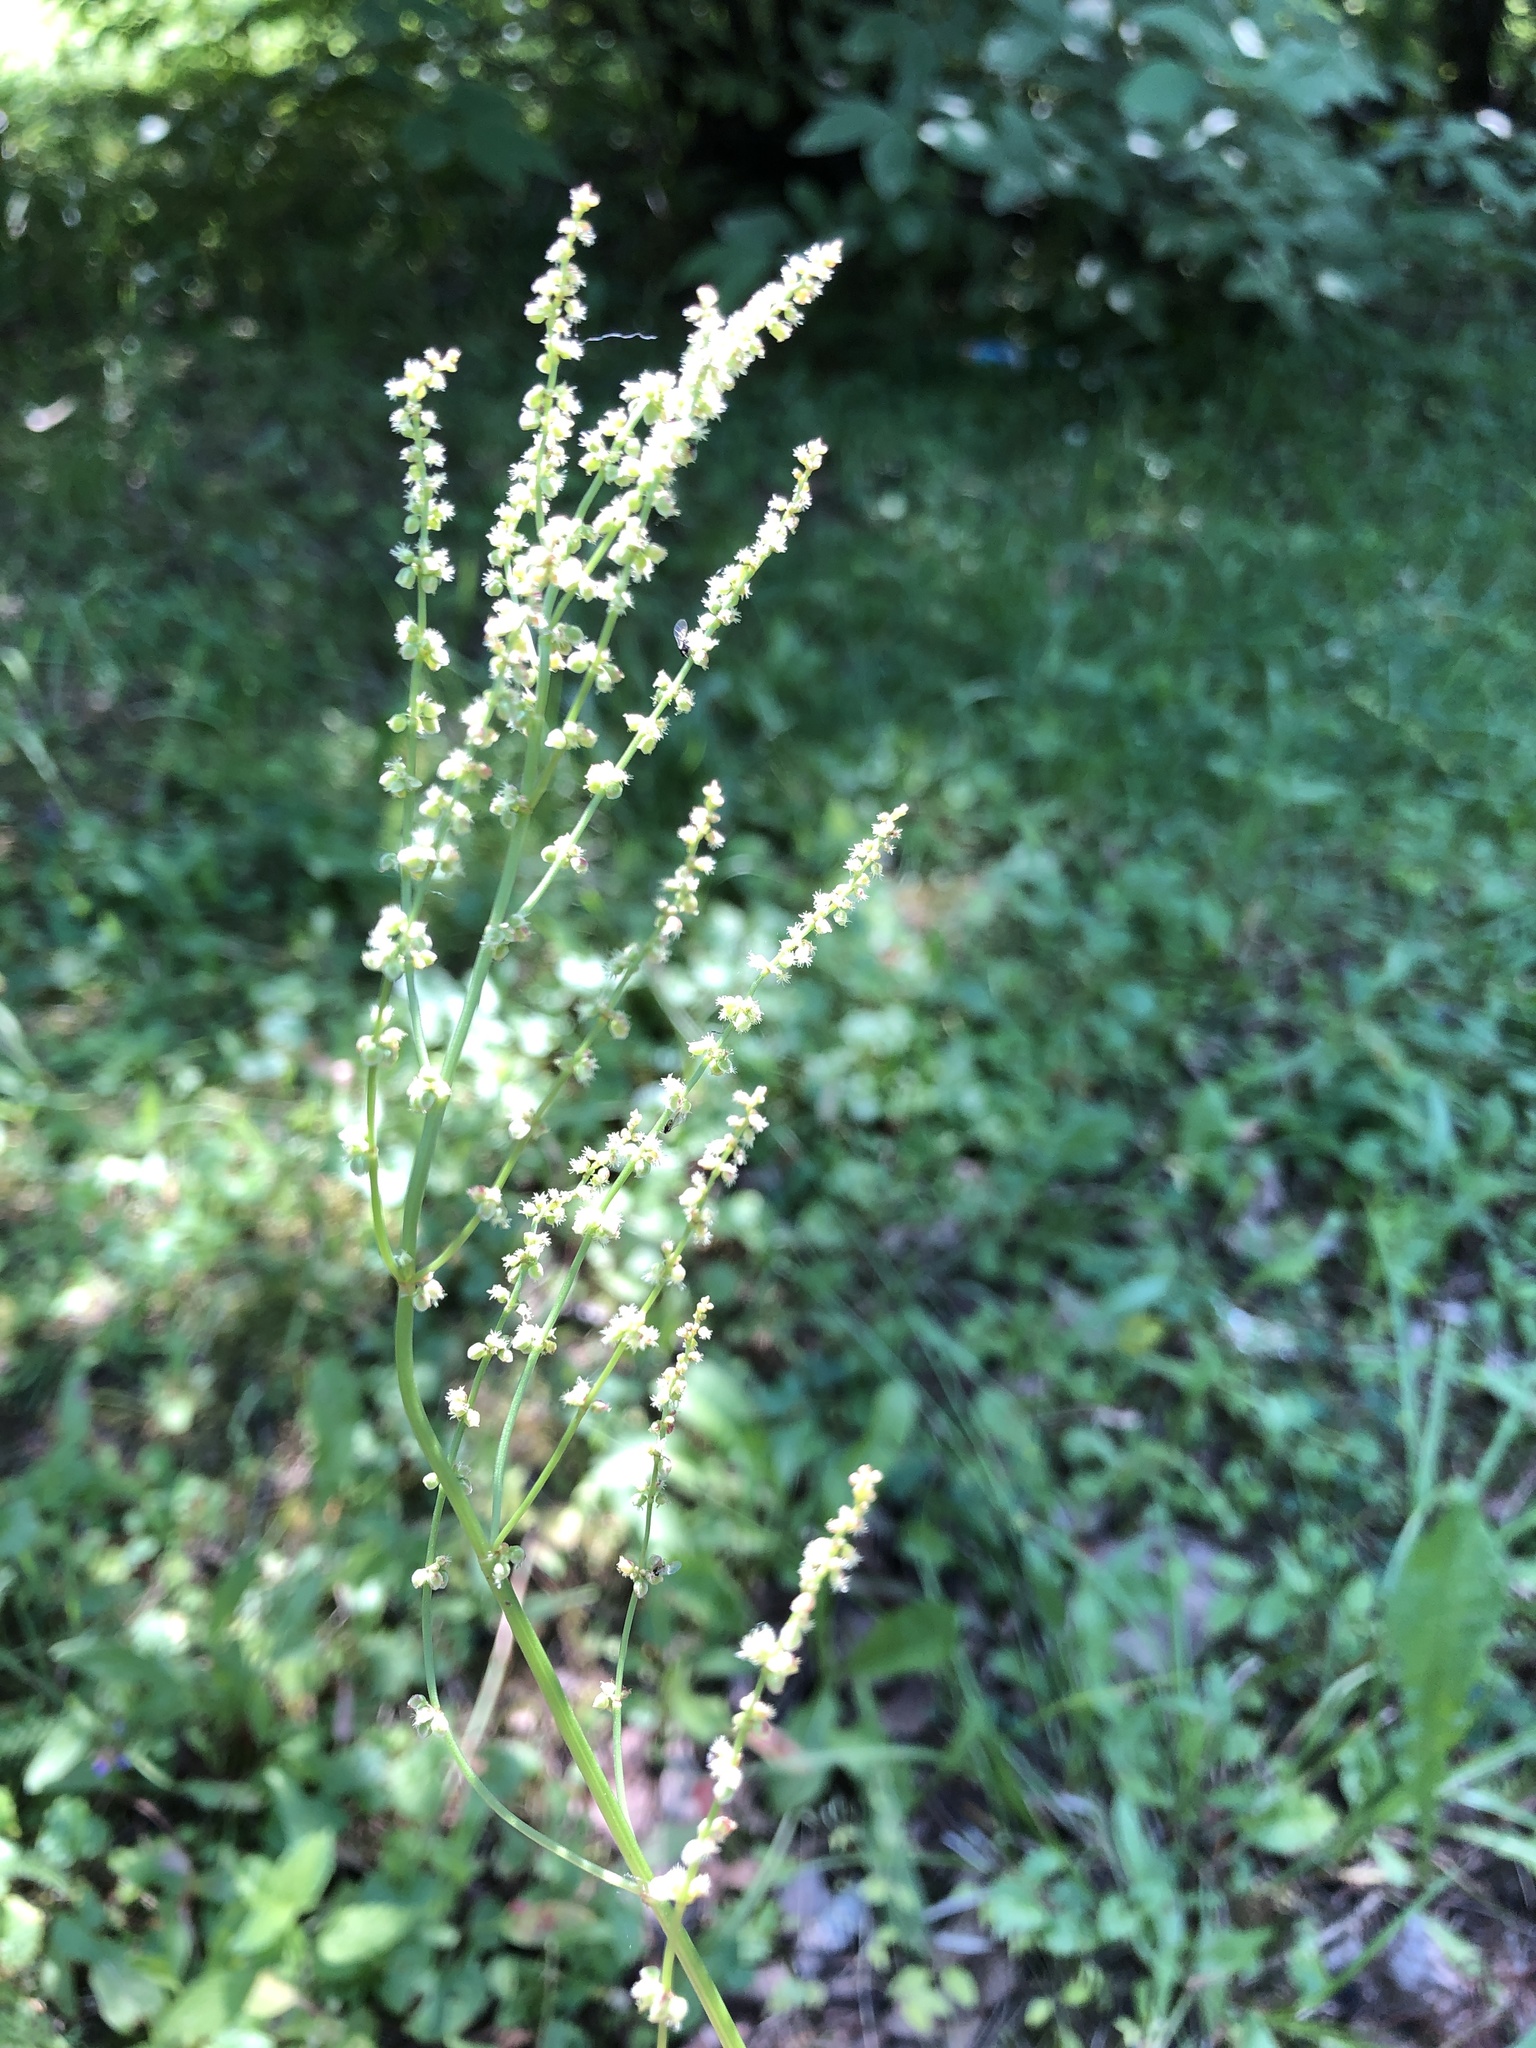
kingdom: Plantae
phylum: Tracheophyta
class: Magnoliopsida
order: Caryophyllales
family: Polygonaceae
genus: Rumex
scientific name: Rumex acetosella
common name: Common sheep sorrel
